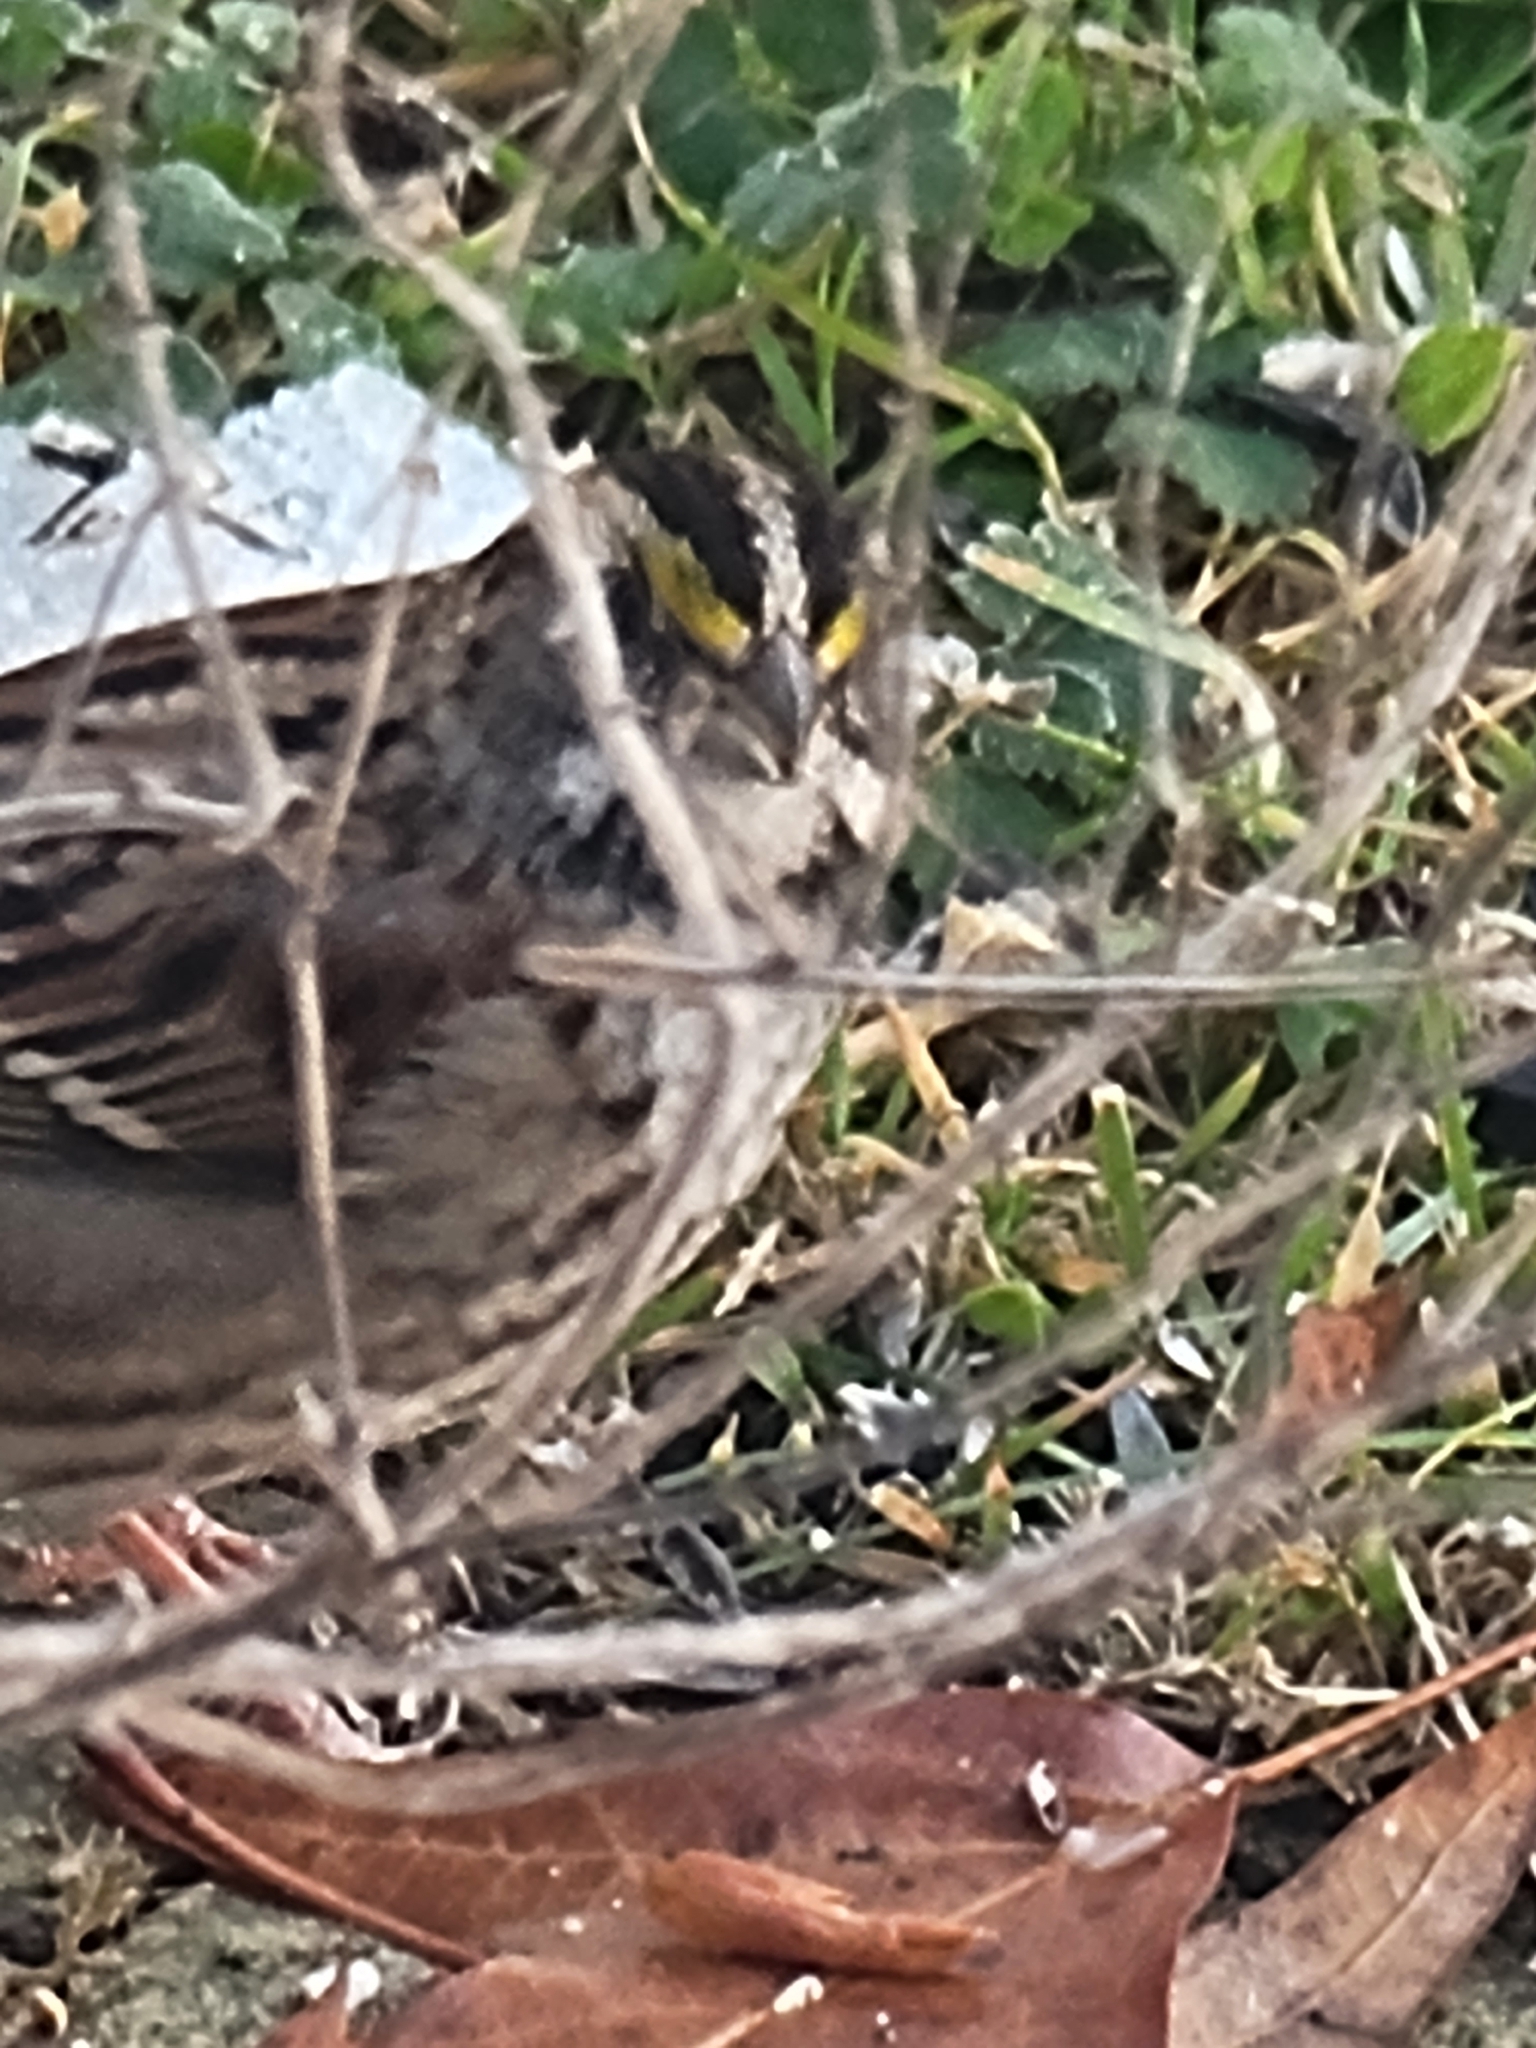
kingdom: Animalia
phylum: Chordata
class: Aves
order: Passeriformes
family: Passerellidae
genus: Zonotrichia
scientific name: Zonotrichia albicollis
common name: White-throated sparrow
